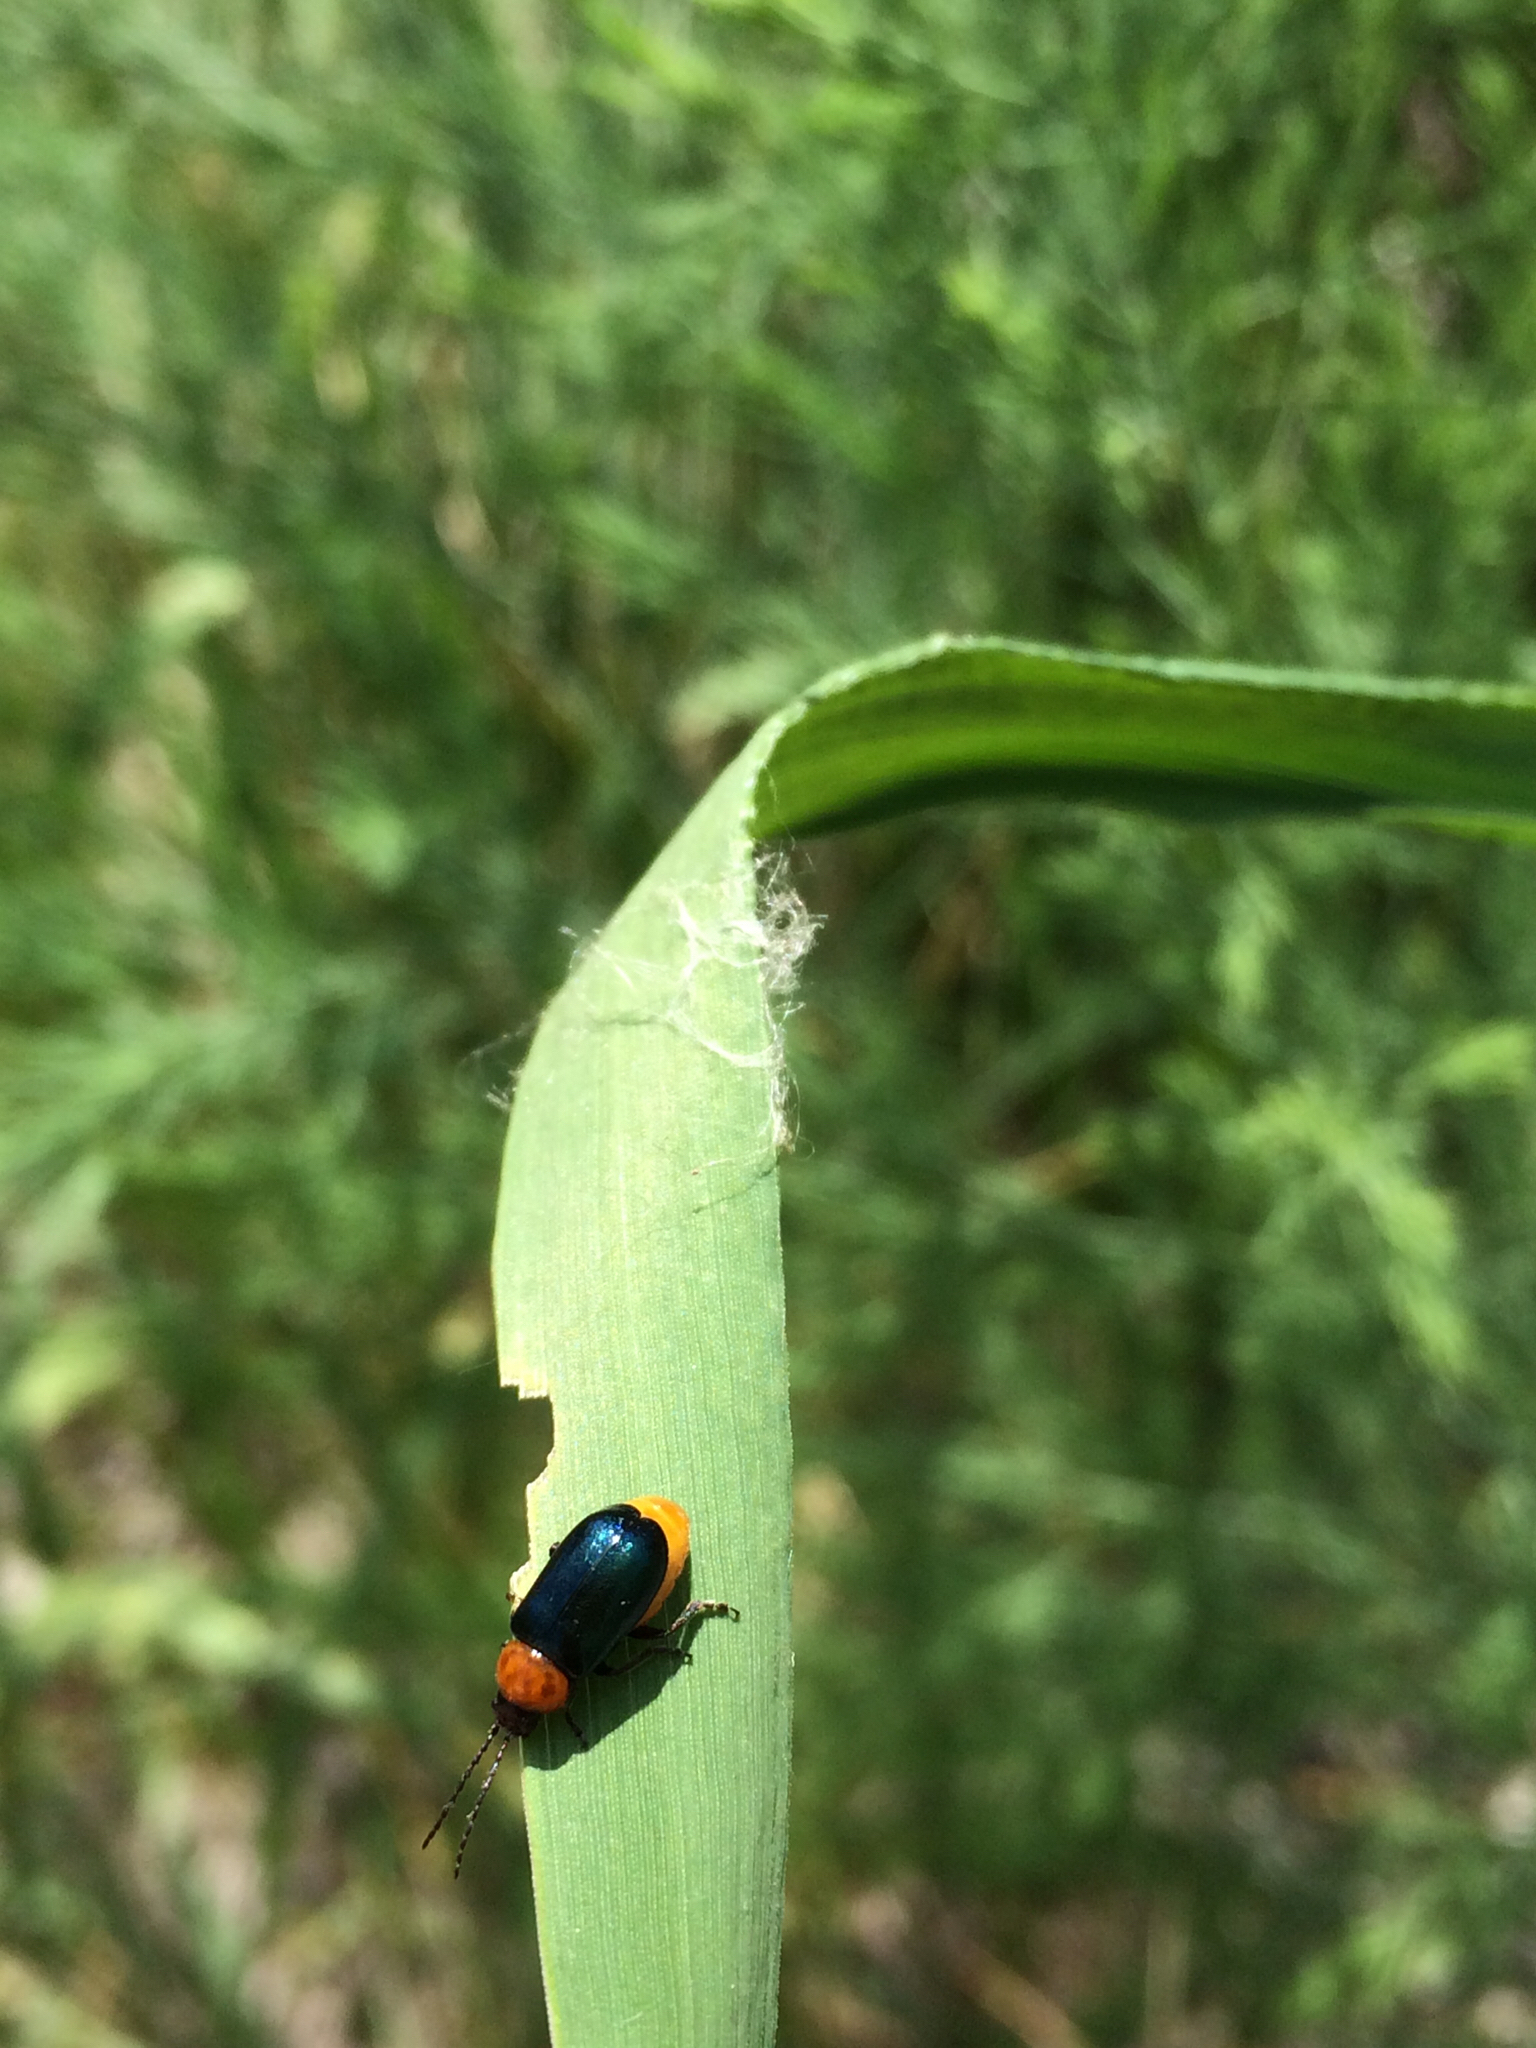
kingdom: Animalia
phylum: Arthropoda
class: Insecta
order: Coleoptera
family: Chrysomelidae
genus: Exosoma
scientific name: Exosoma collare
